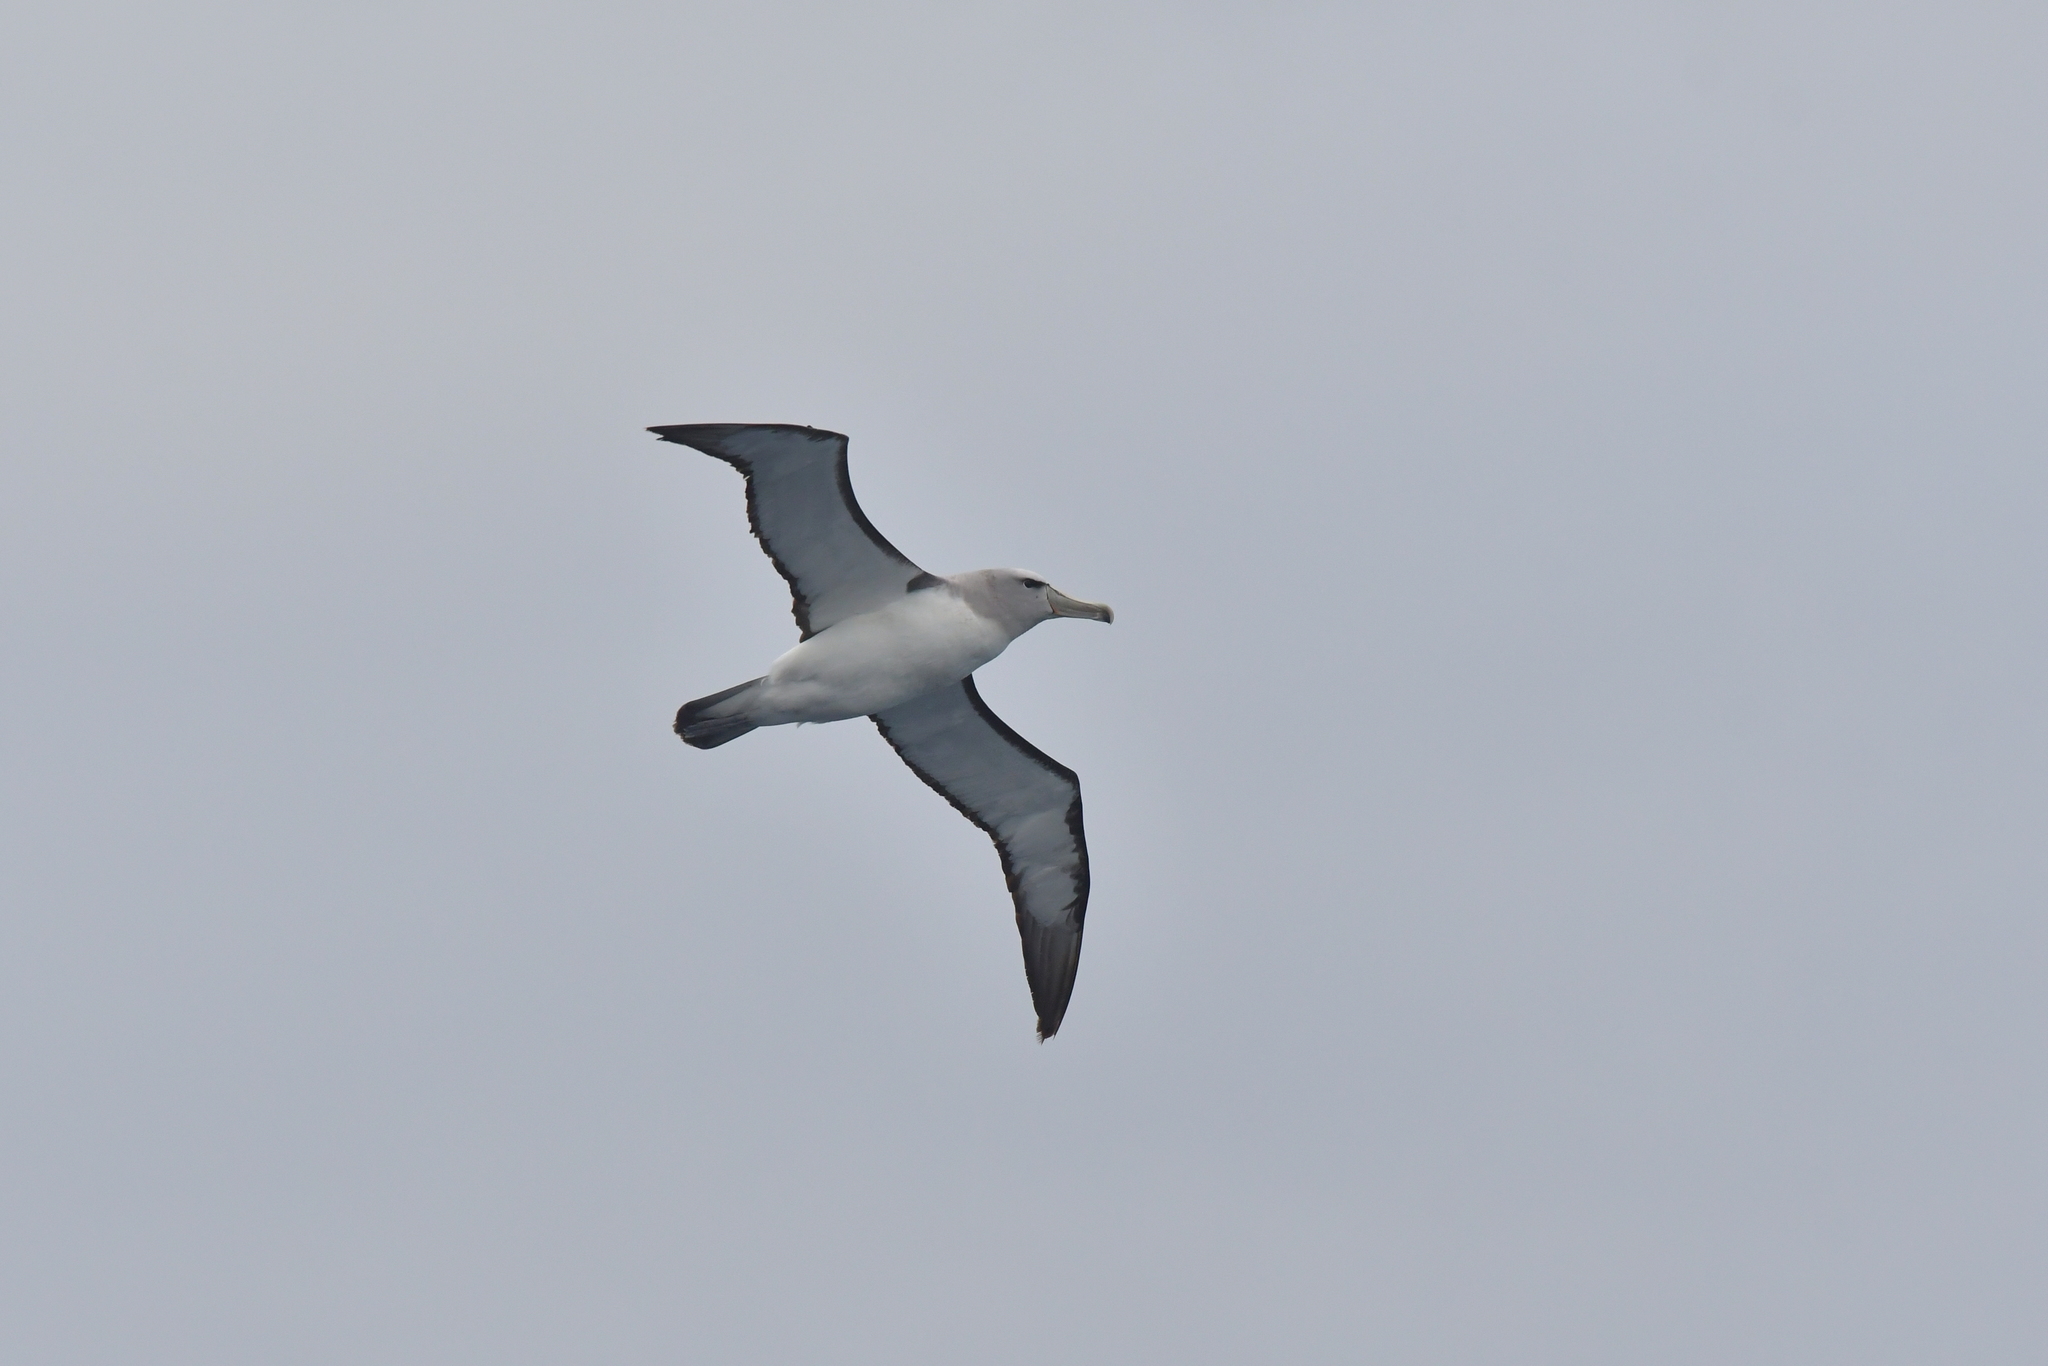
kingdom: Animalia
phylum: Chordata
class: Aves
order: Procellariiformes
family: Diomedeidae
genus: Thalassarche
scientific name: Thalassarche salvini
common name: Salvin's albatross
